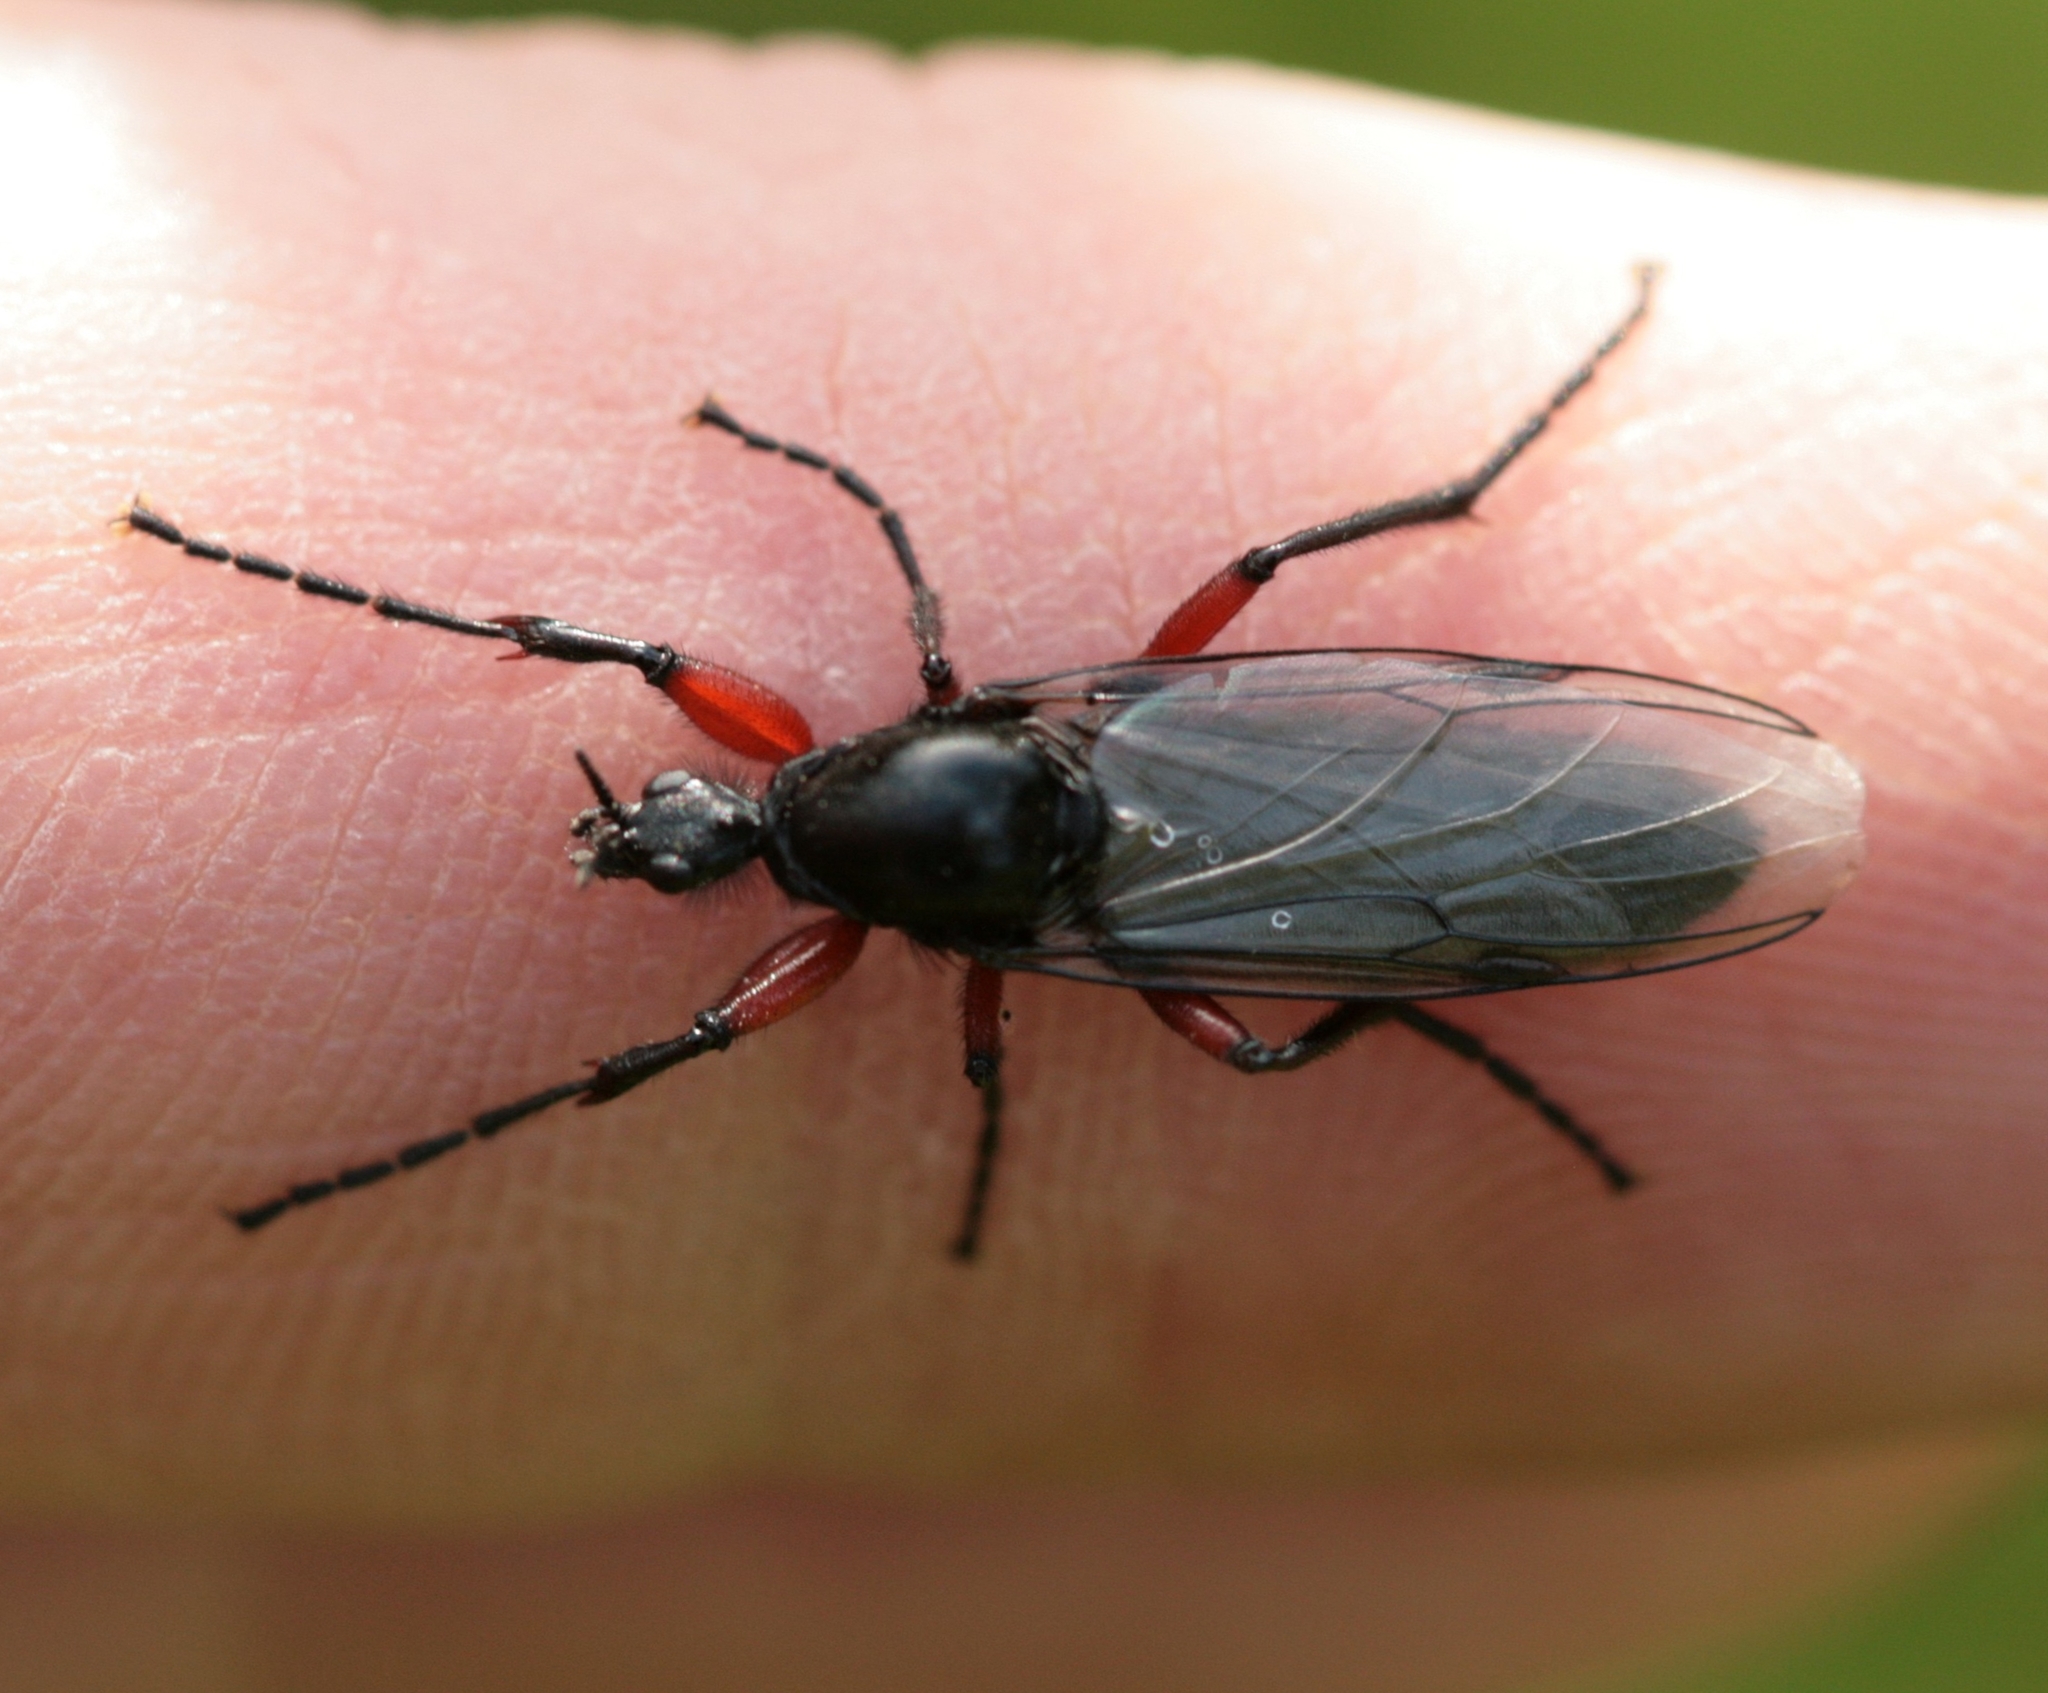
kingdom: Animalia
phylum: Arthropoda
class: Insecta
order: Diptera
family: Bibionidae
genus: Bibio
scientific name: Bibio pomonae
